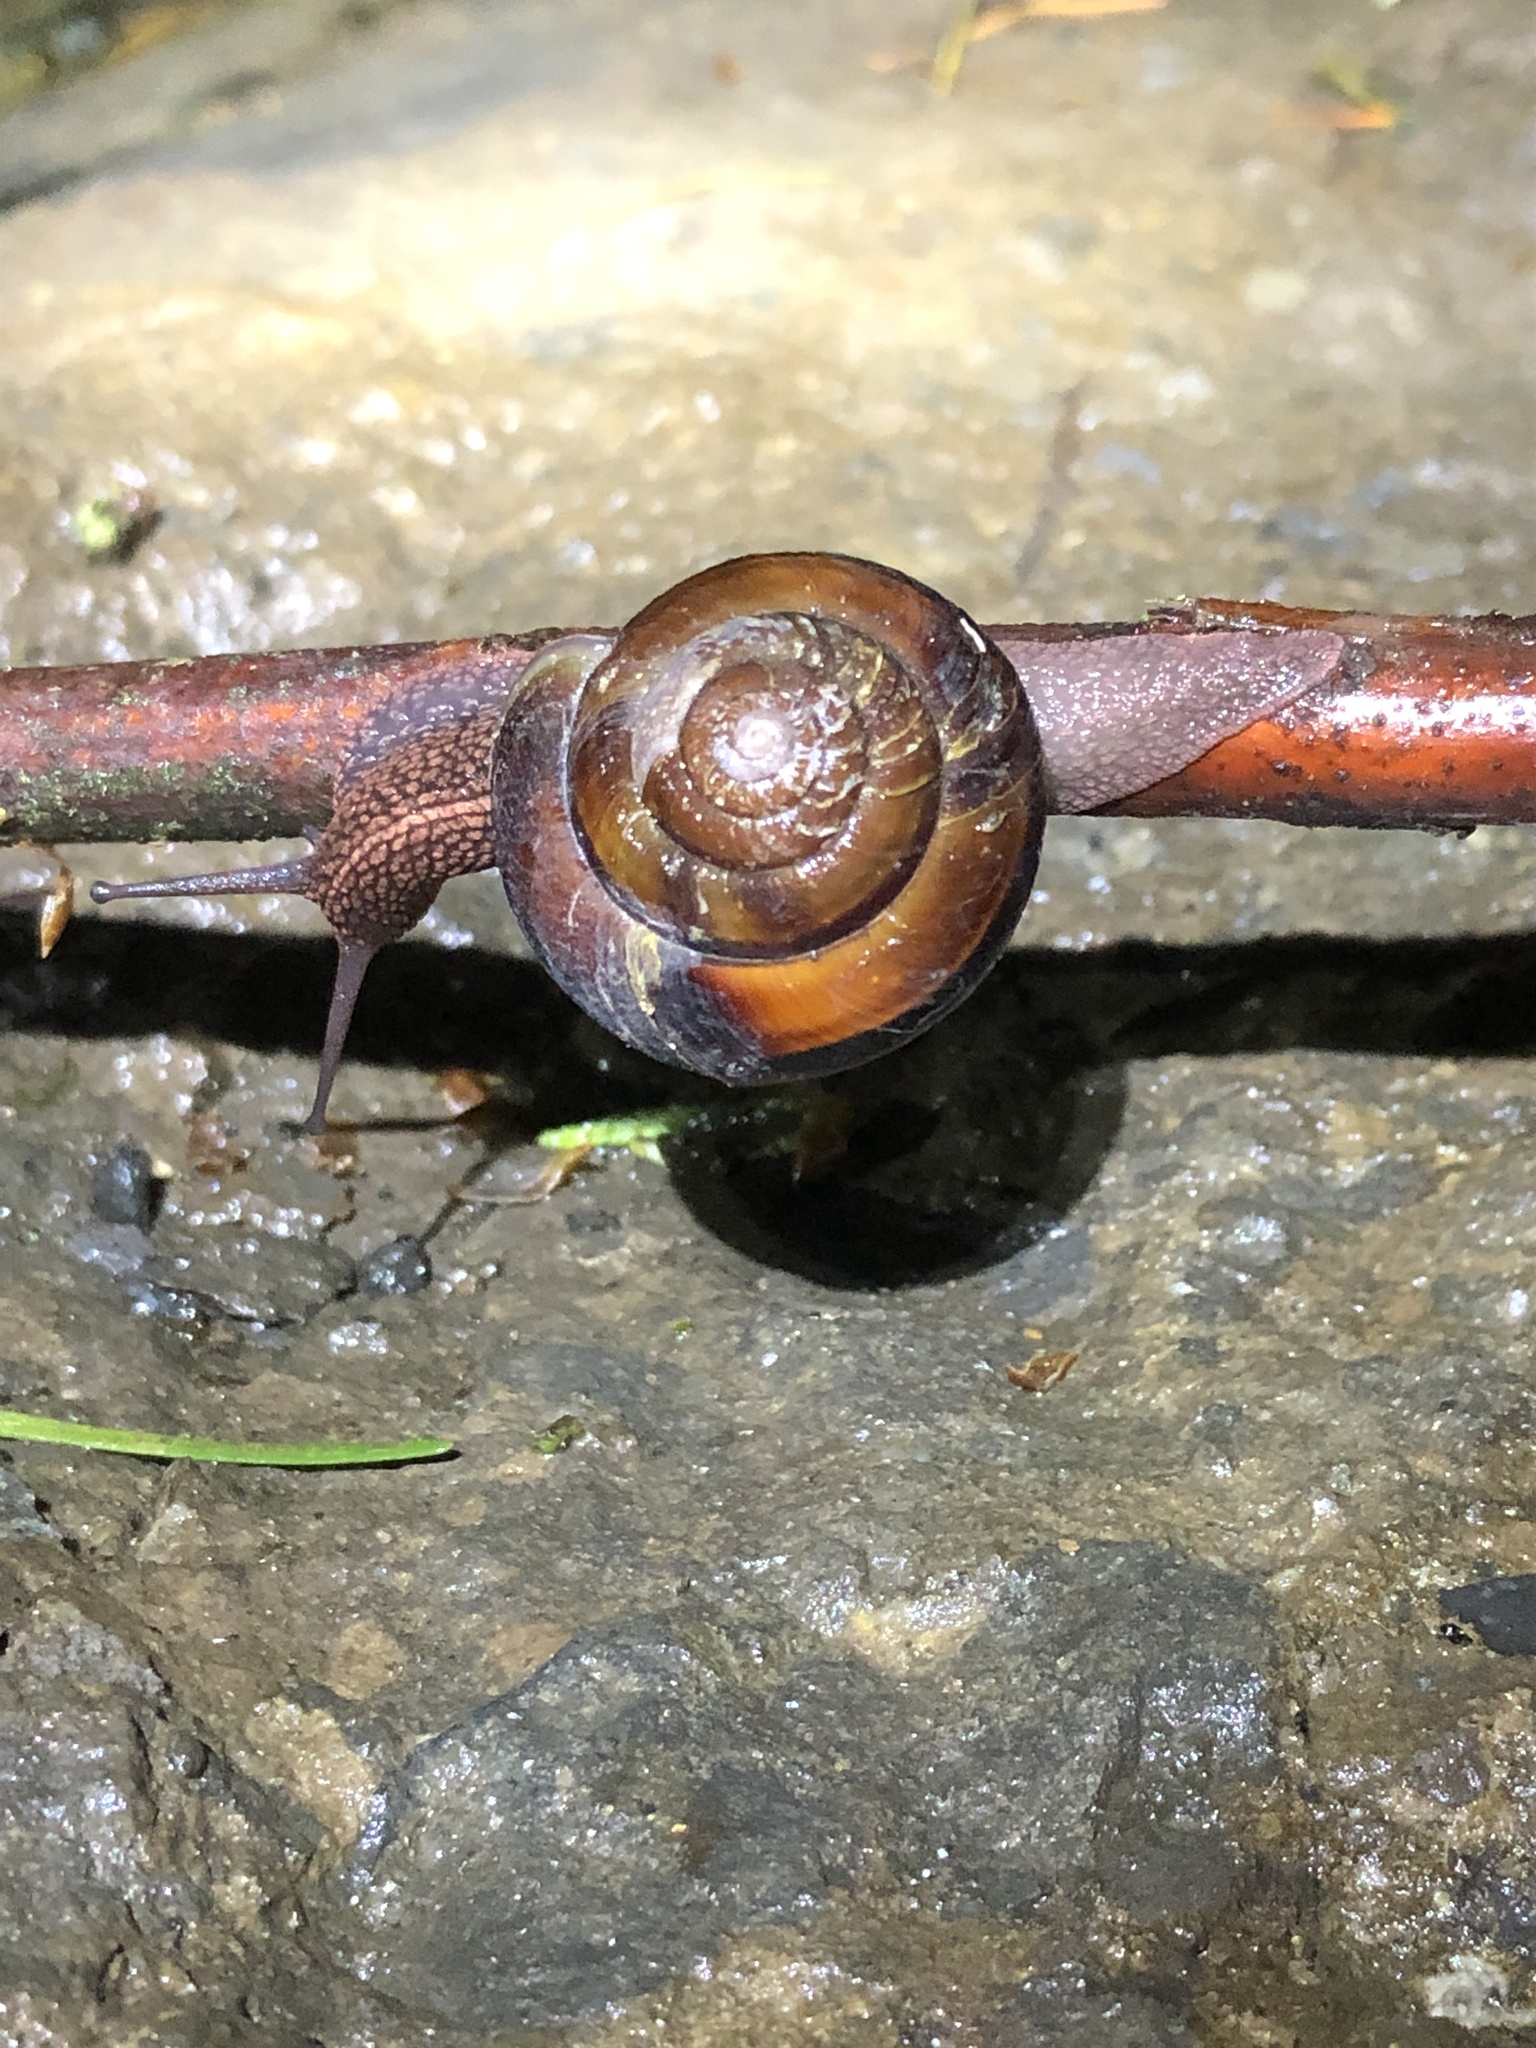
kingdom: Animalia
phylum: Mollusca
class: Gastropoda
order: Stylommatophora
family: Xanthonychidae
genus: Monadenia
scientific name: Monadenia fidelis
